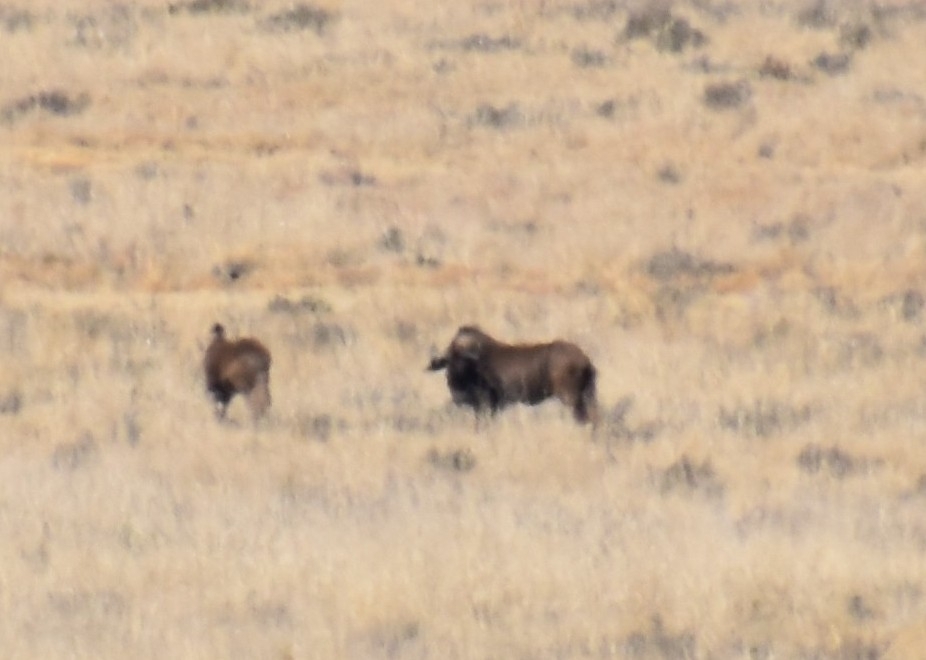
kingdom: Animalia
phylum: Chordata
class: Mammalia
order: Artiodactyla
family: Bovidae
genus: Connochaetes
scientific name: Connochaetes gnou
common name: Black wildebeest
